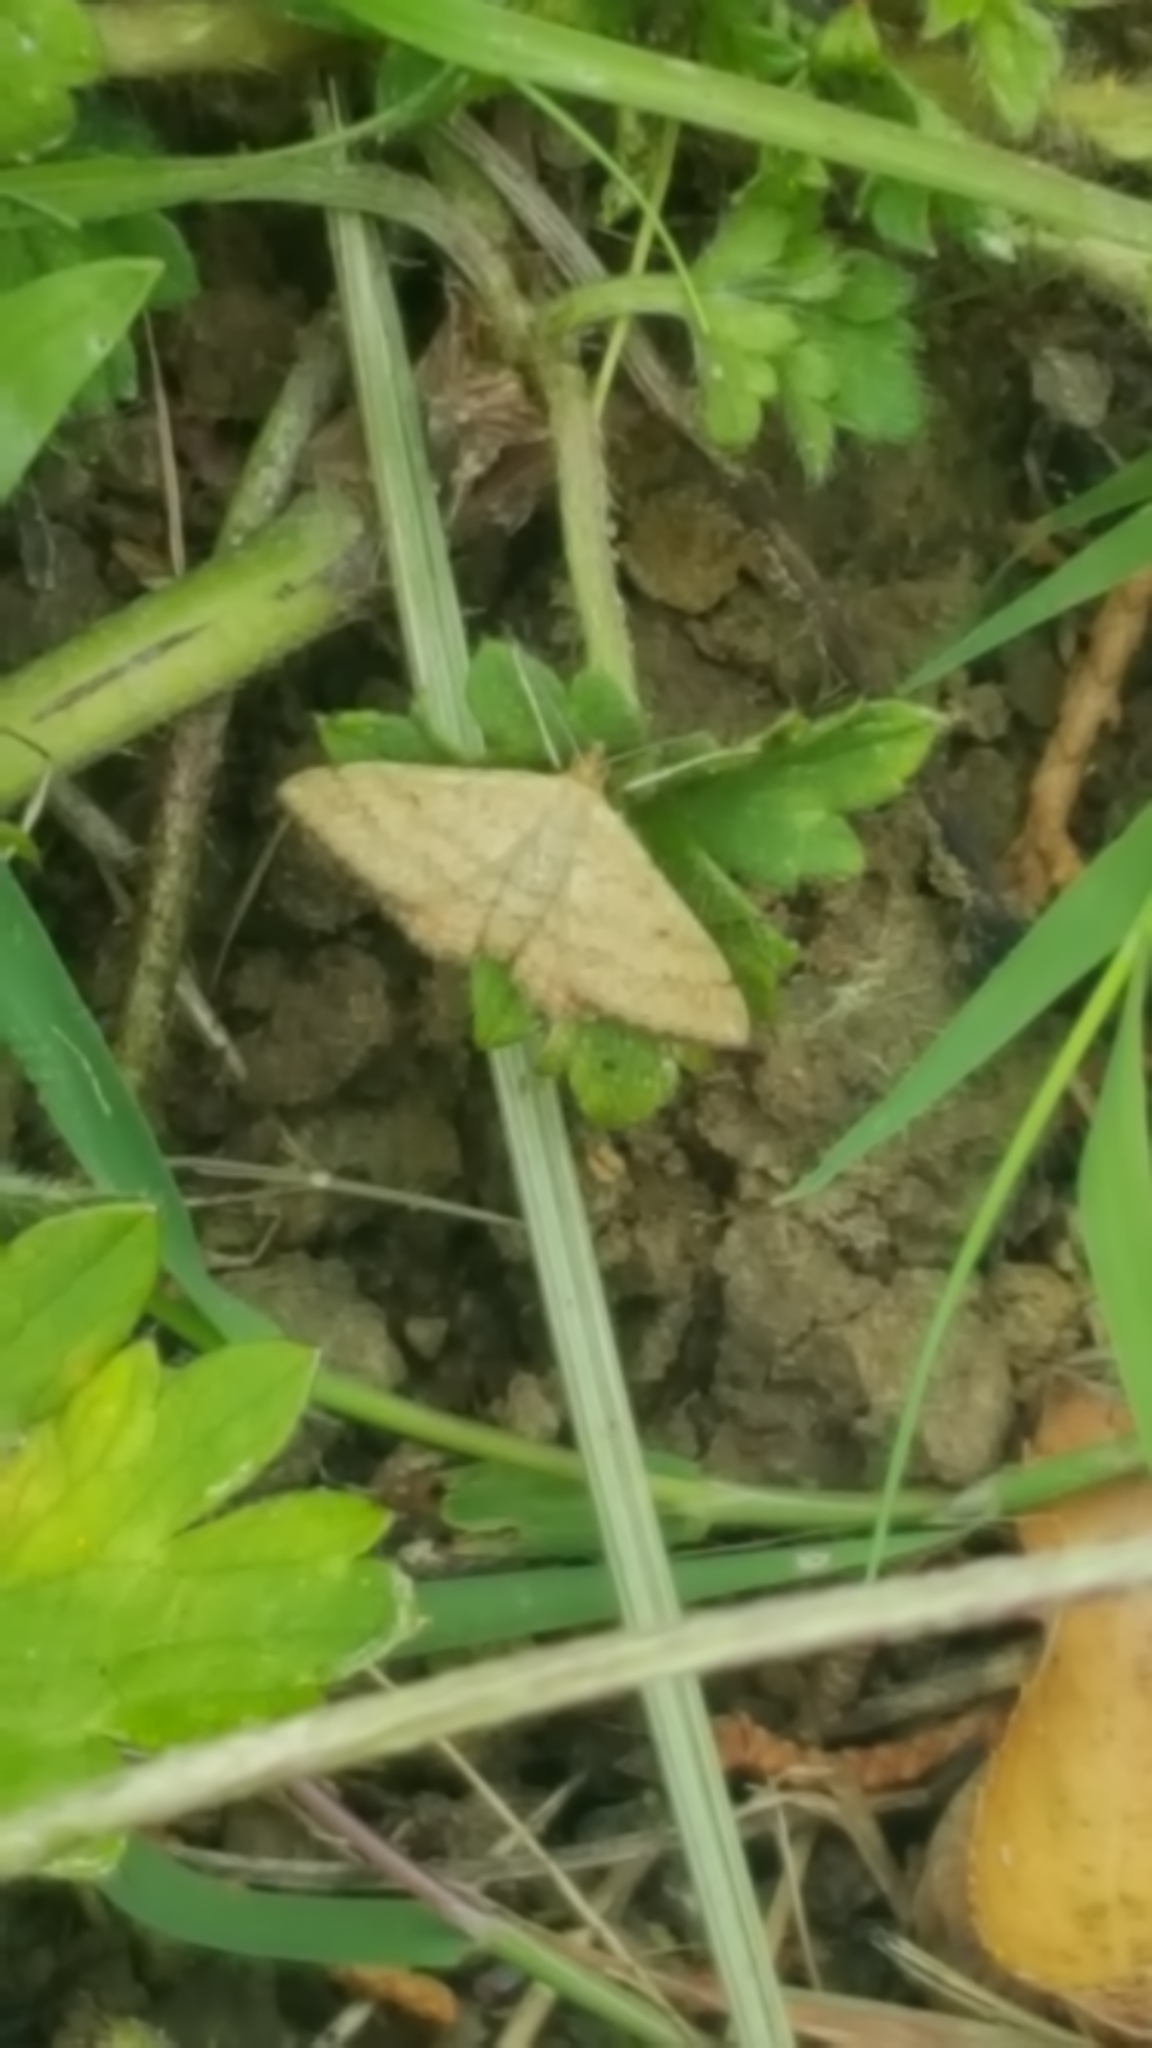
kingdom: Animalia
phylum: Arthropoda
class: Insecta
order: Lepidoptera
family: Geometridae
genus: Scopula
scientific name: Scopula rubraria
